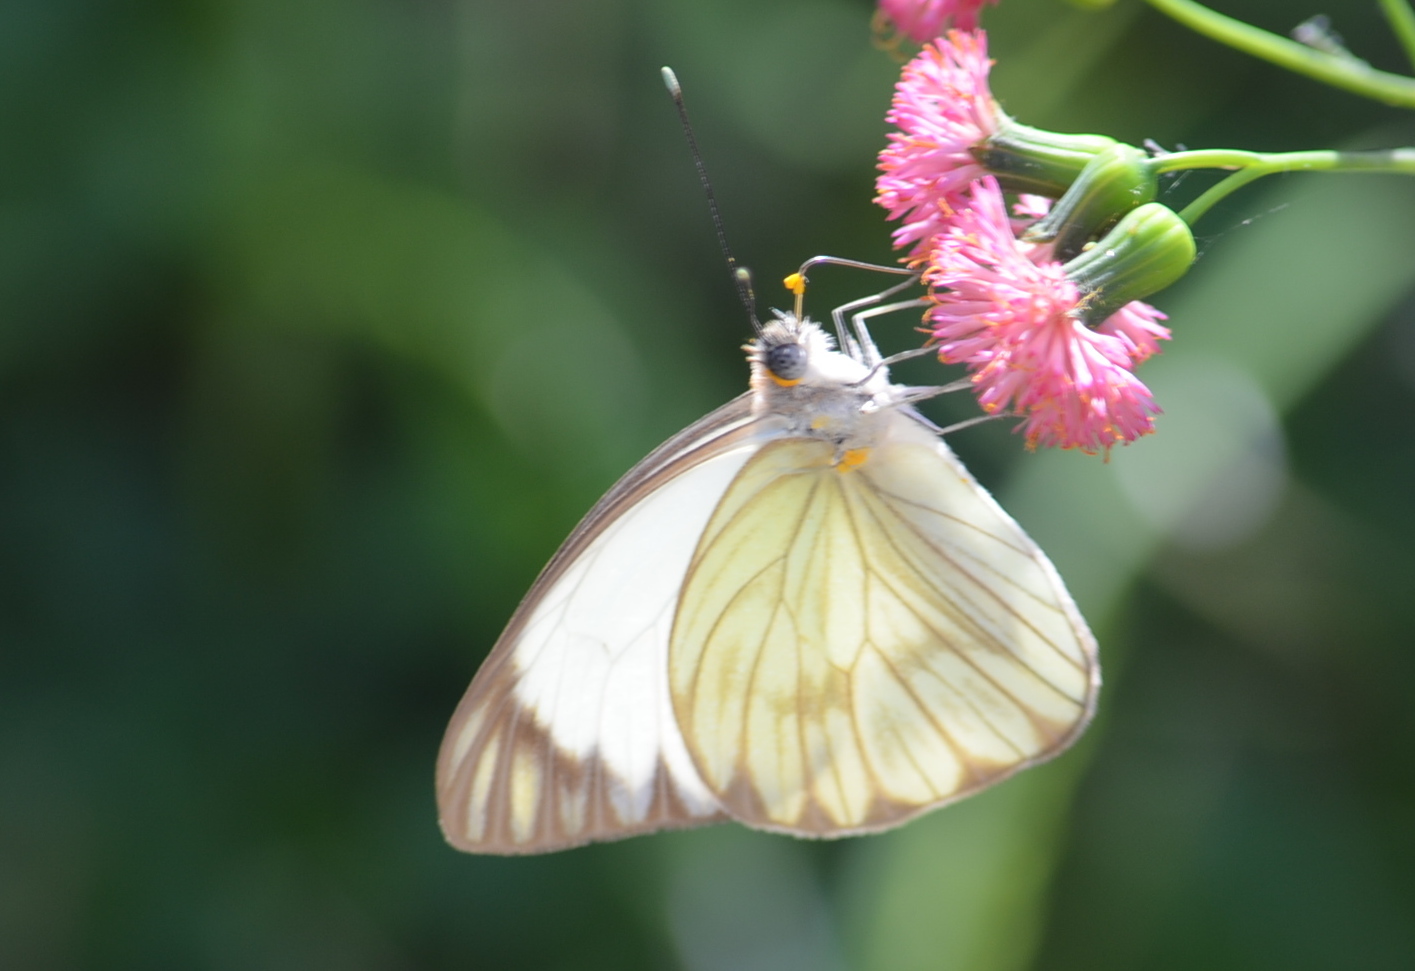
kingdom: Animalia
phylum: Arthropoda
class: Insecta
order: Lepidoptera
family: Pieridae
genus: Ascia
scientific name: Ascia monuste
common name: Great southern white
